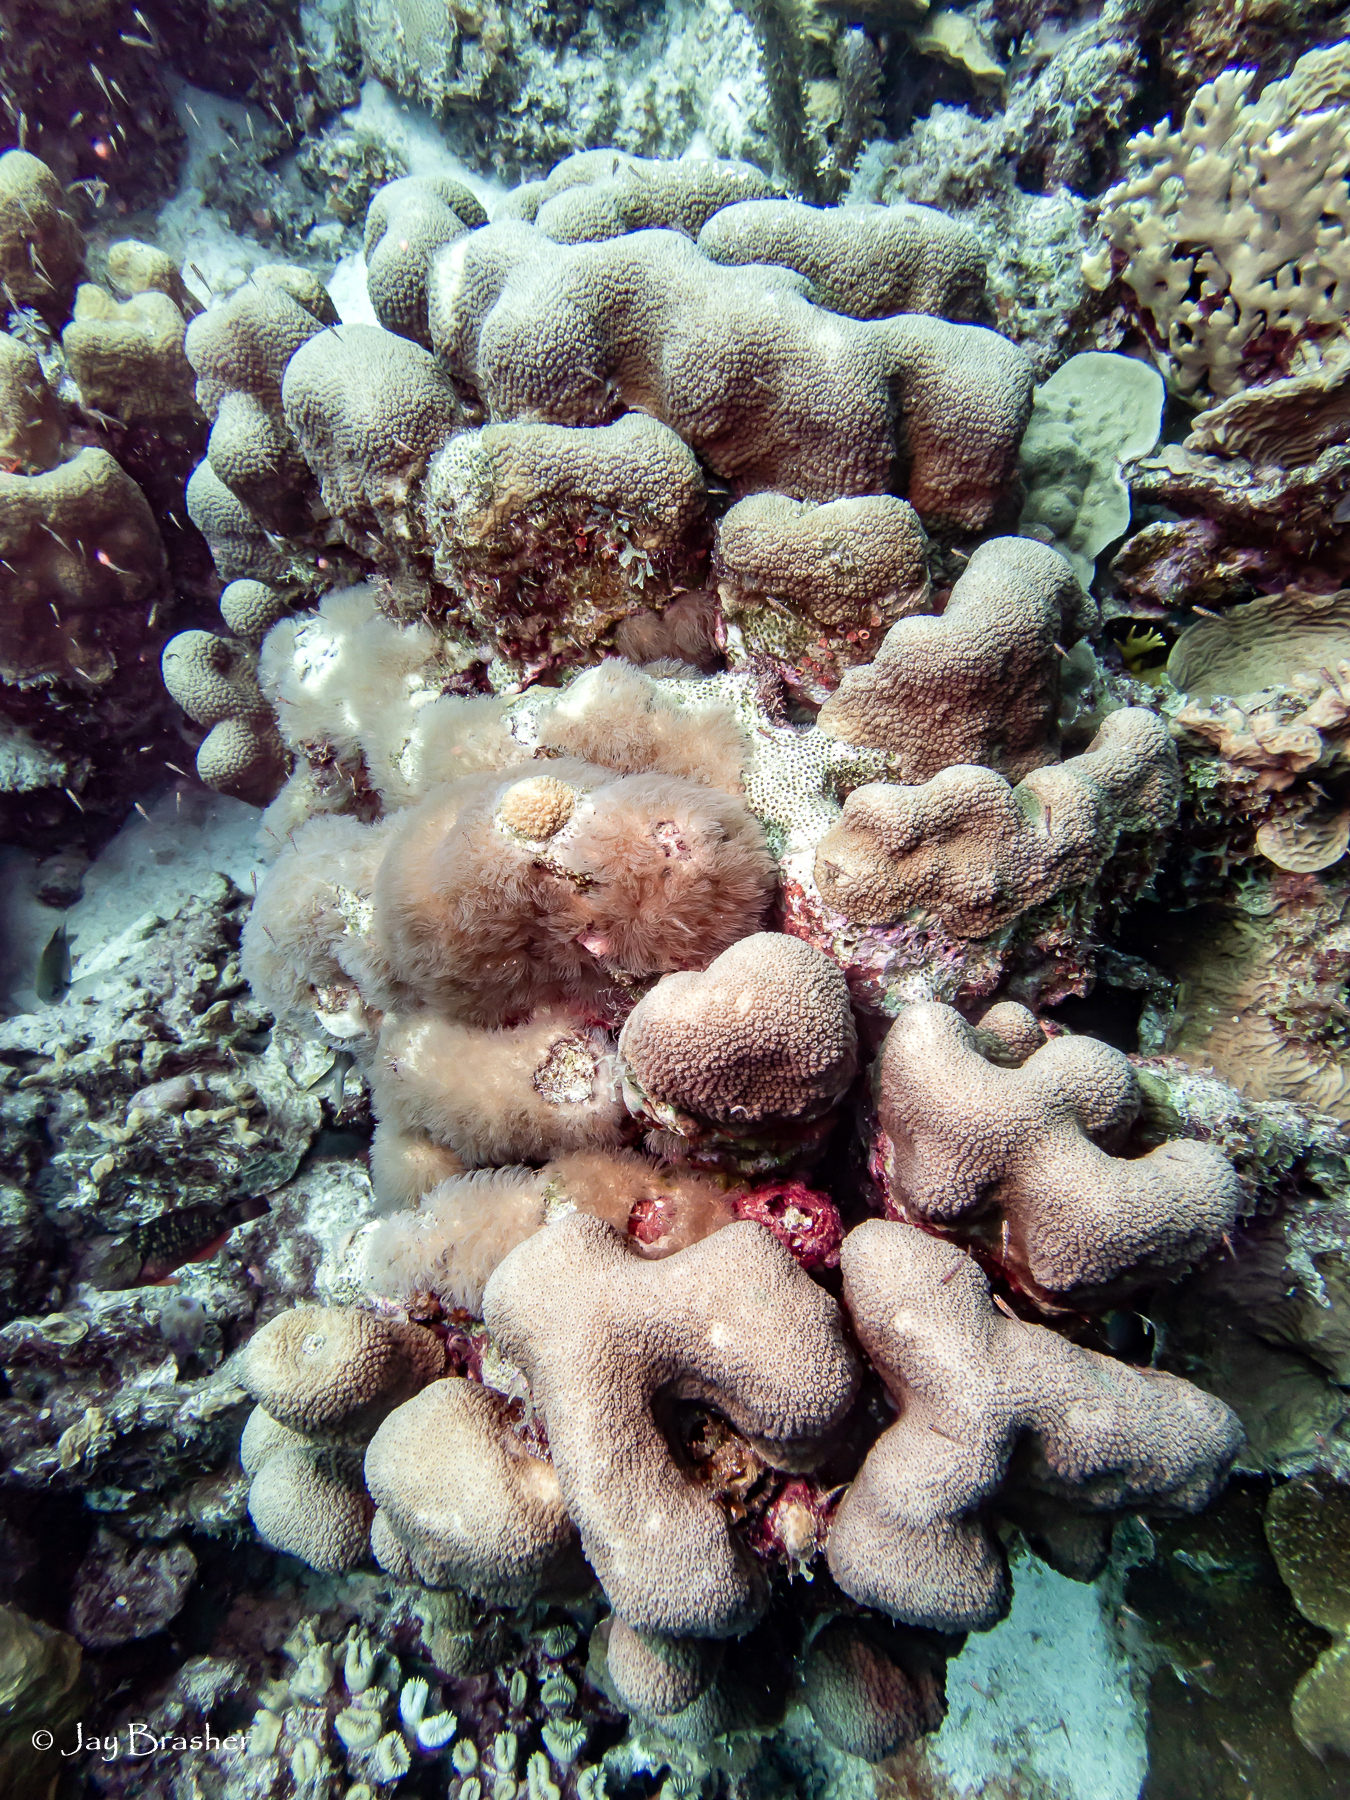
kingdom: Animalia
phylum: Cnidaria
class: Anthozoa
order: Scleralcyonacea
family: Erythropodiidae
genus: Erythropodium
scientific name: Erythropodium caribaeorum
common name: Encrusting gorgonian
